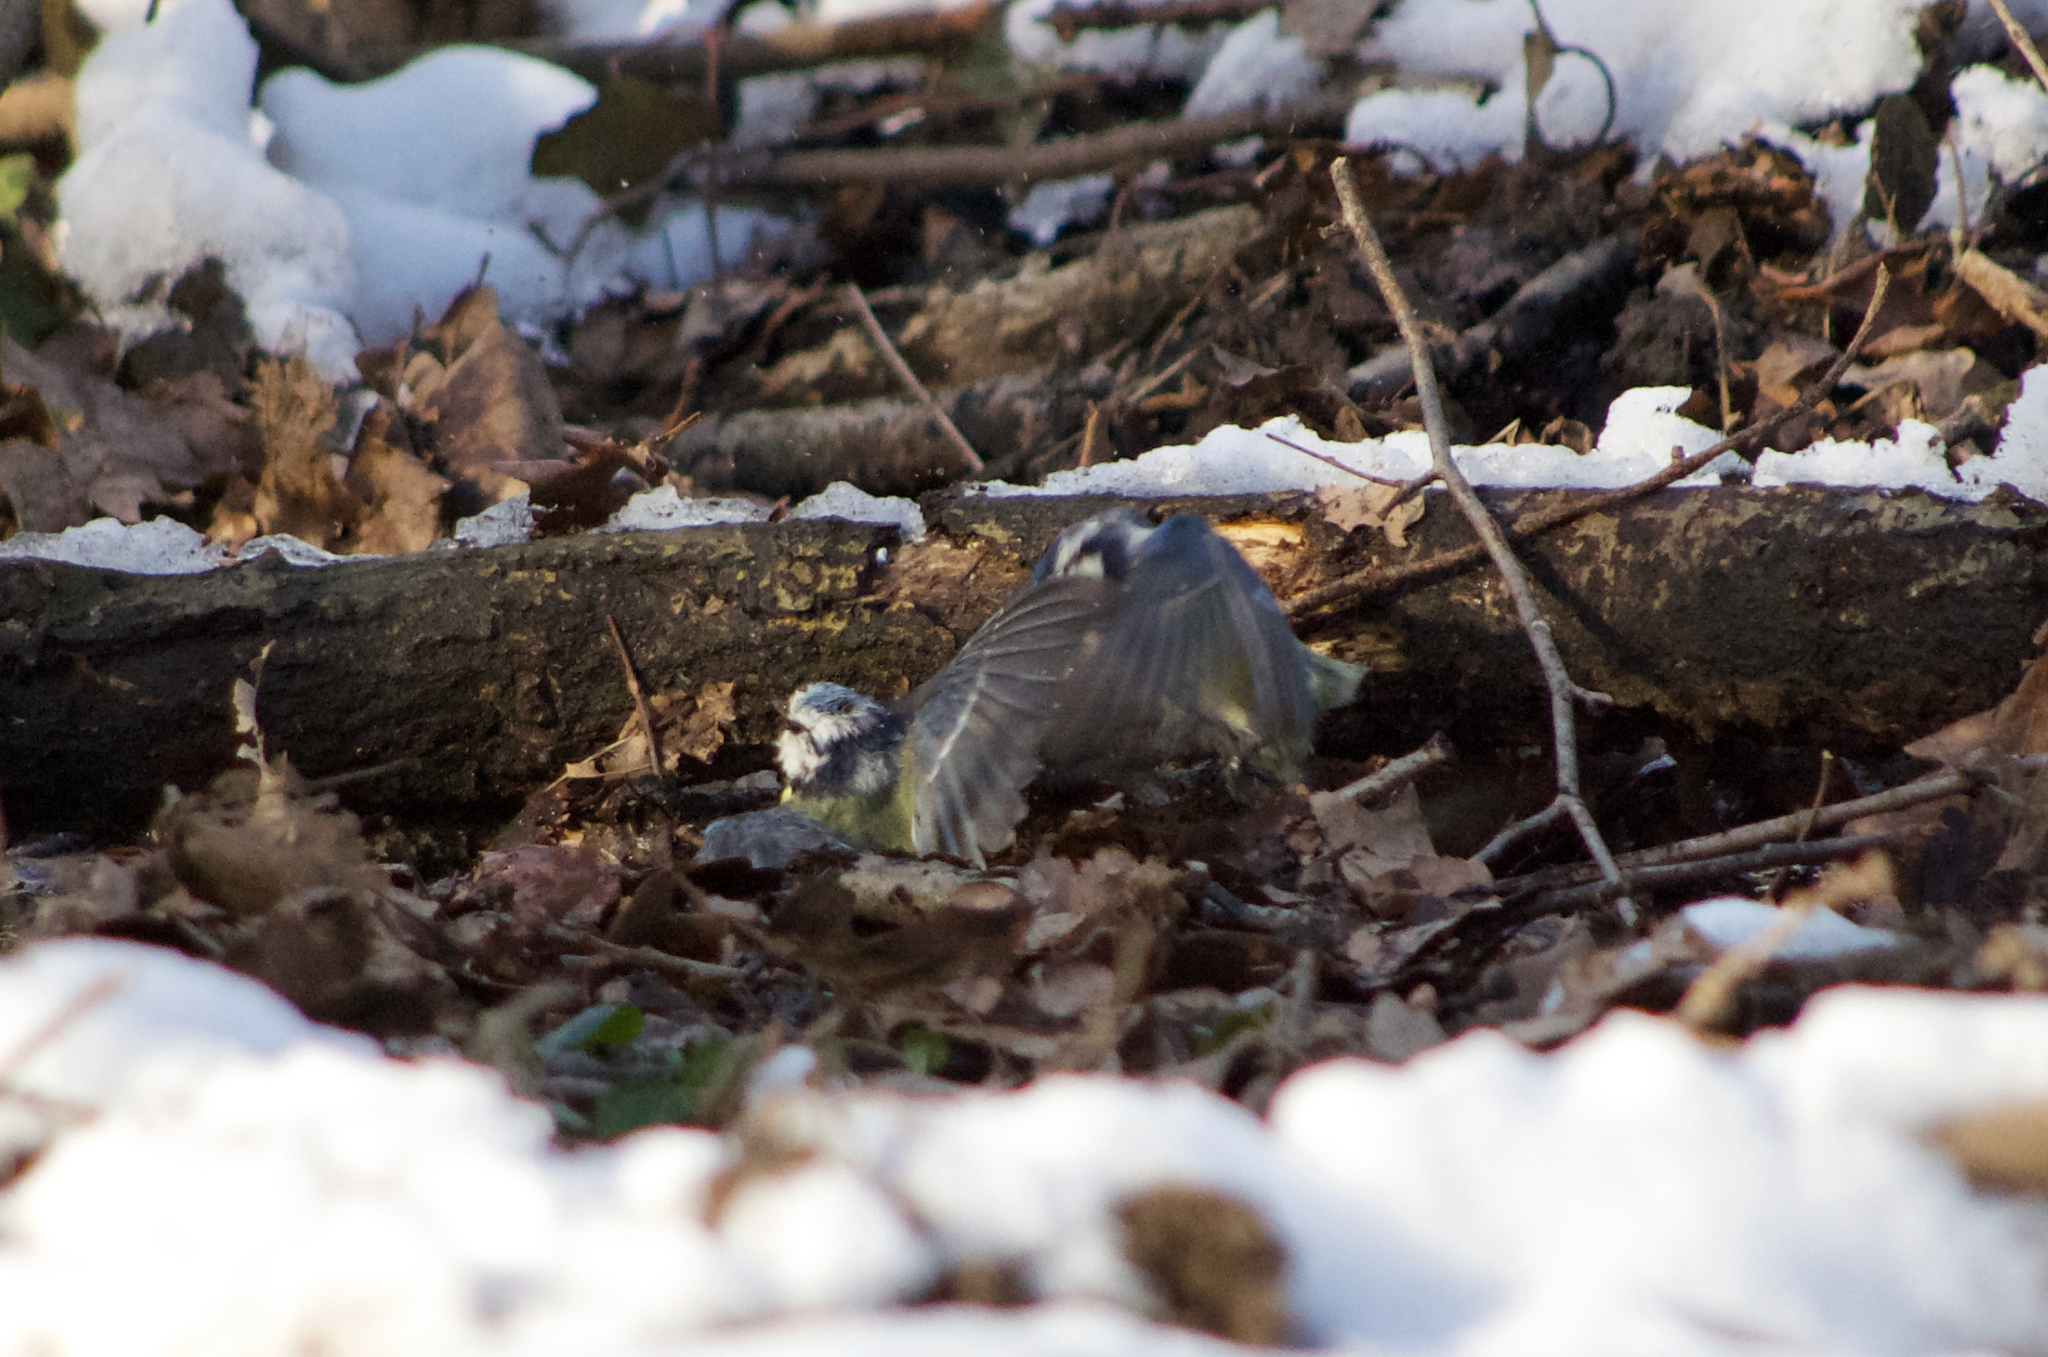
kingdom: Animalia
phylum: Chordata
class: Aves
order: Passeriformes
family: Paridae
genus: Cyanistes
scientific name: Cyanistes caeruleus
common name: Eurasian blue tit
